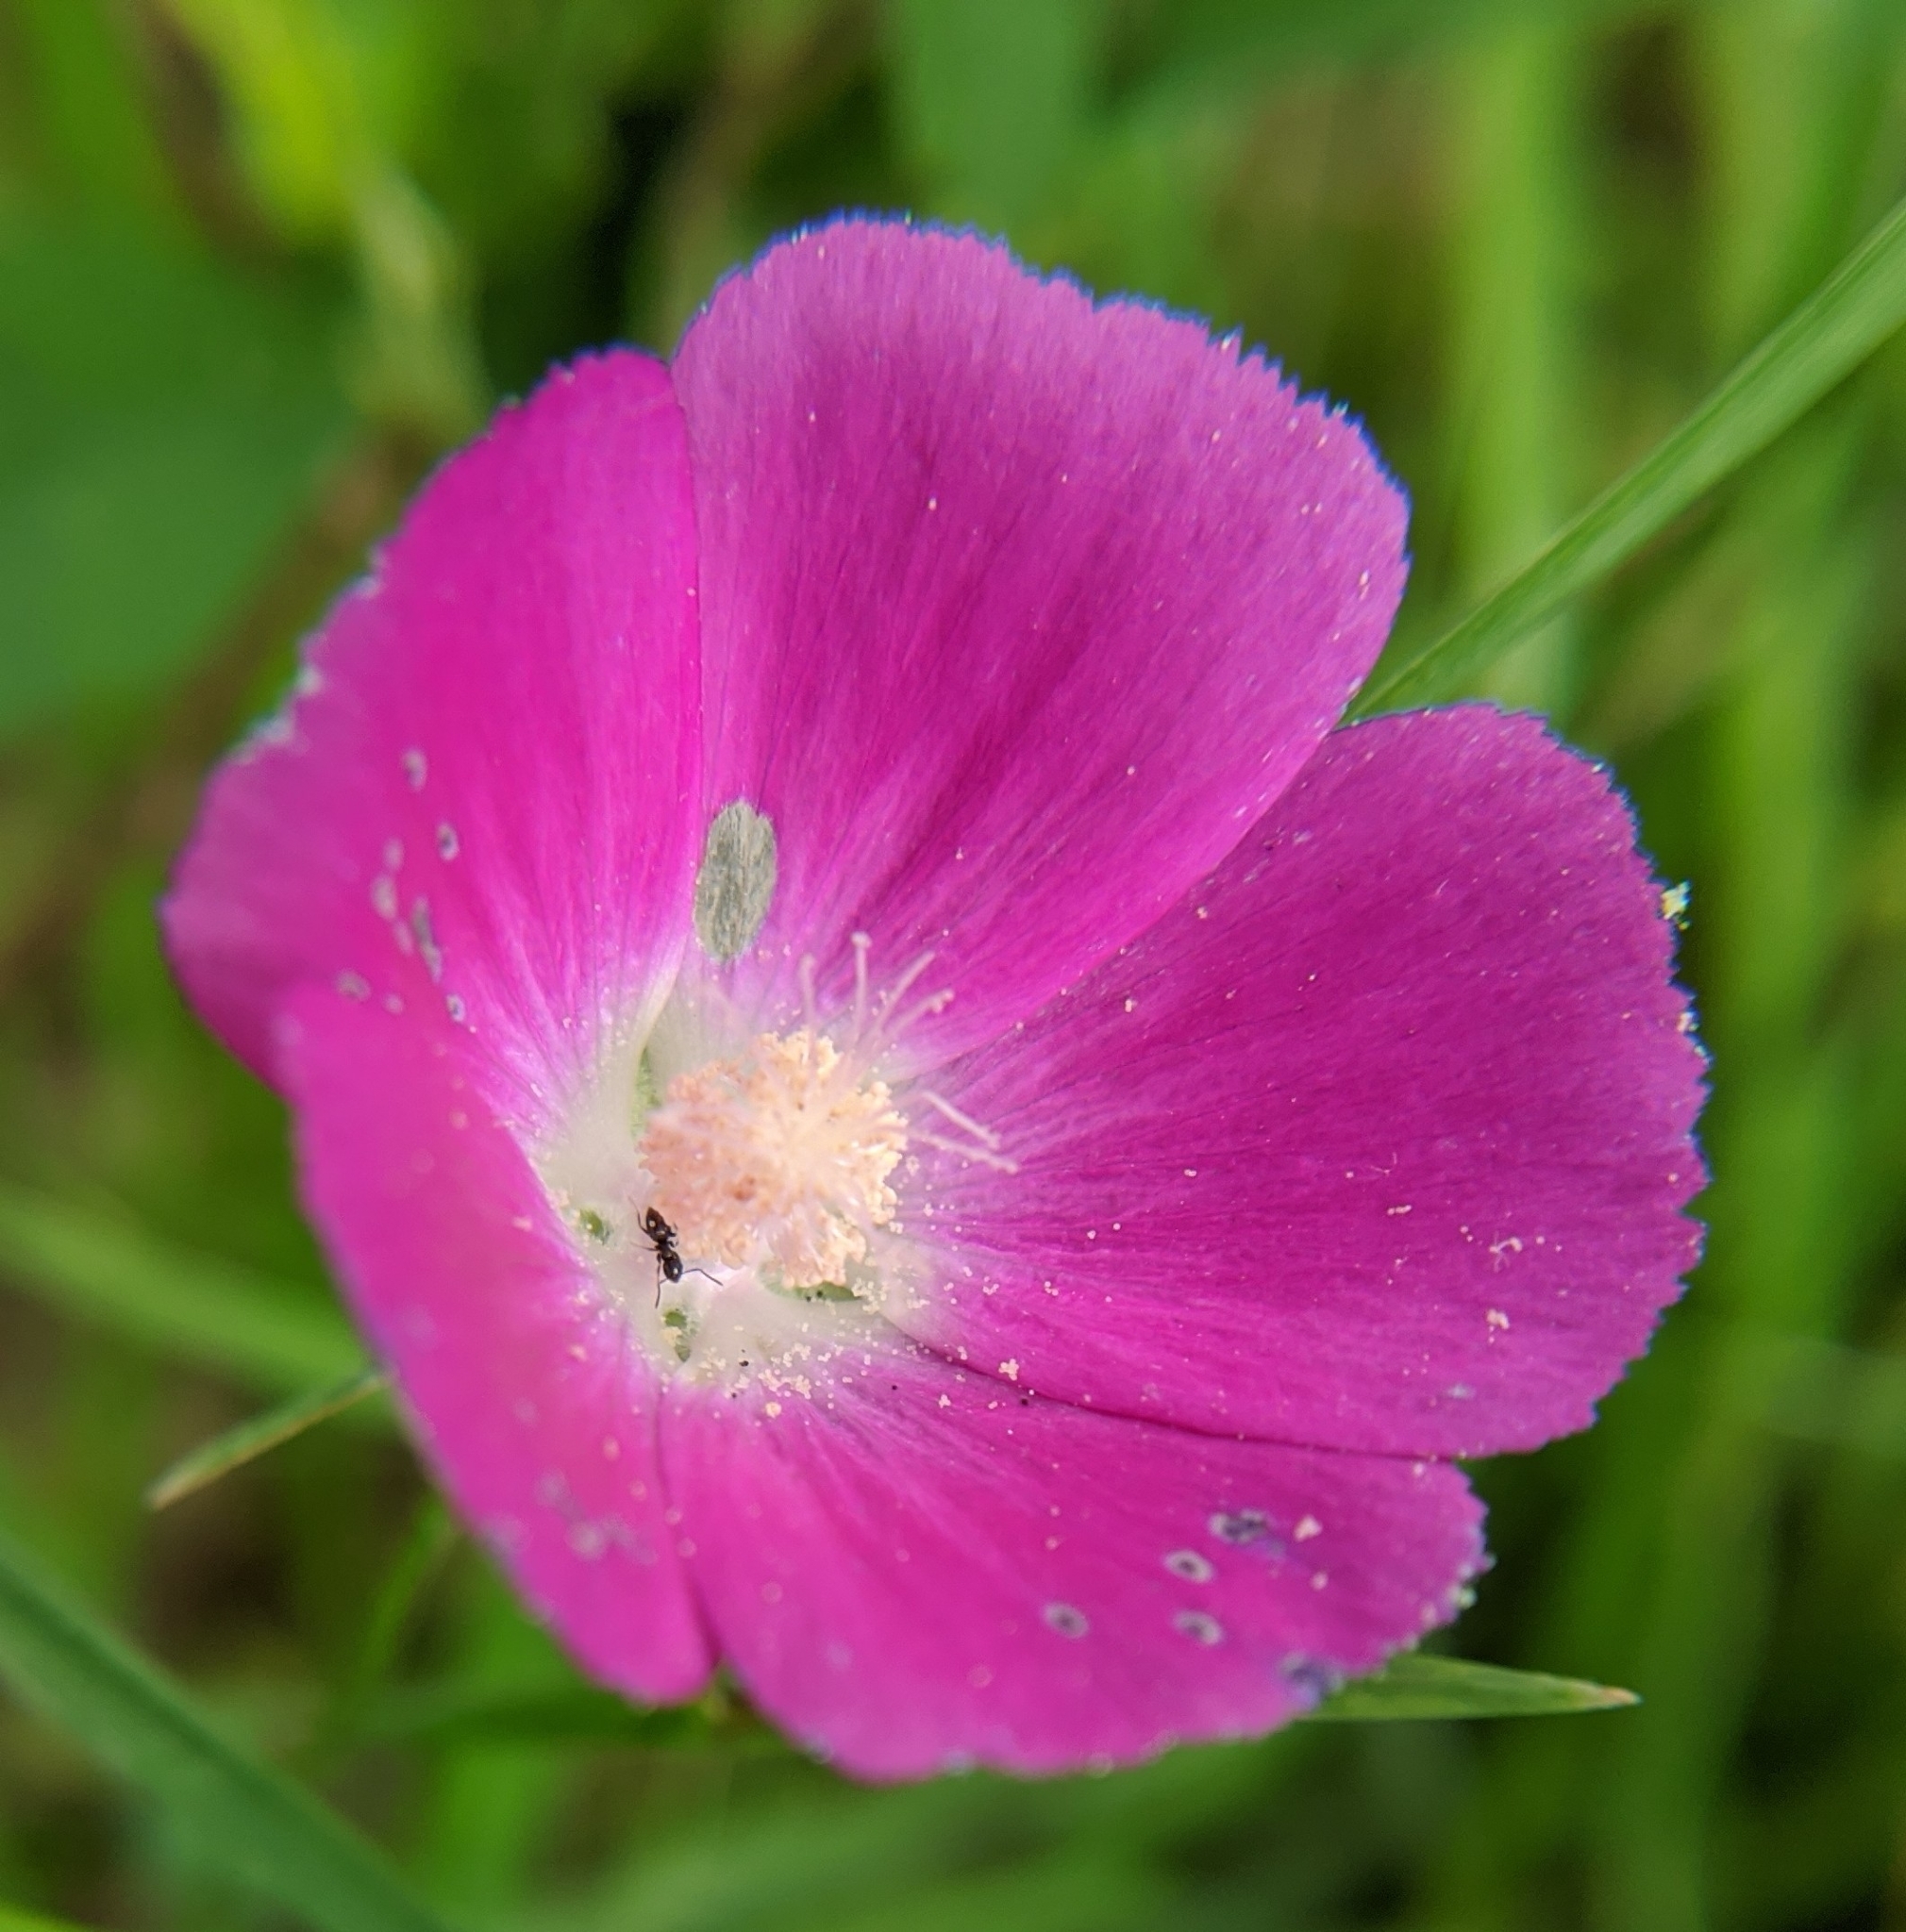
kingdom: Plantae
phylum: Tracheophyta
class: Magnoliopsida
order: Malvales
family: Malvaceae
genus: Callirhoe
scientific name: Callirhoe involucrata
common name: Purple poppy-mallow
